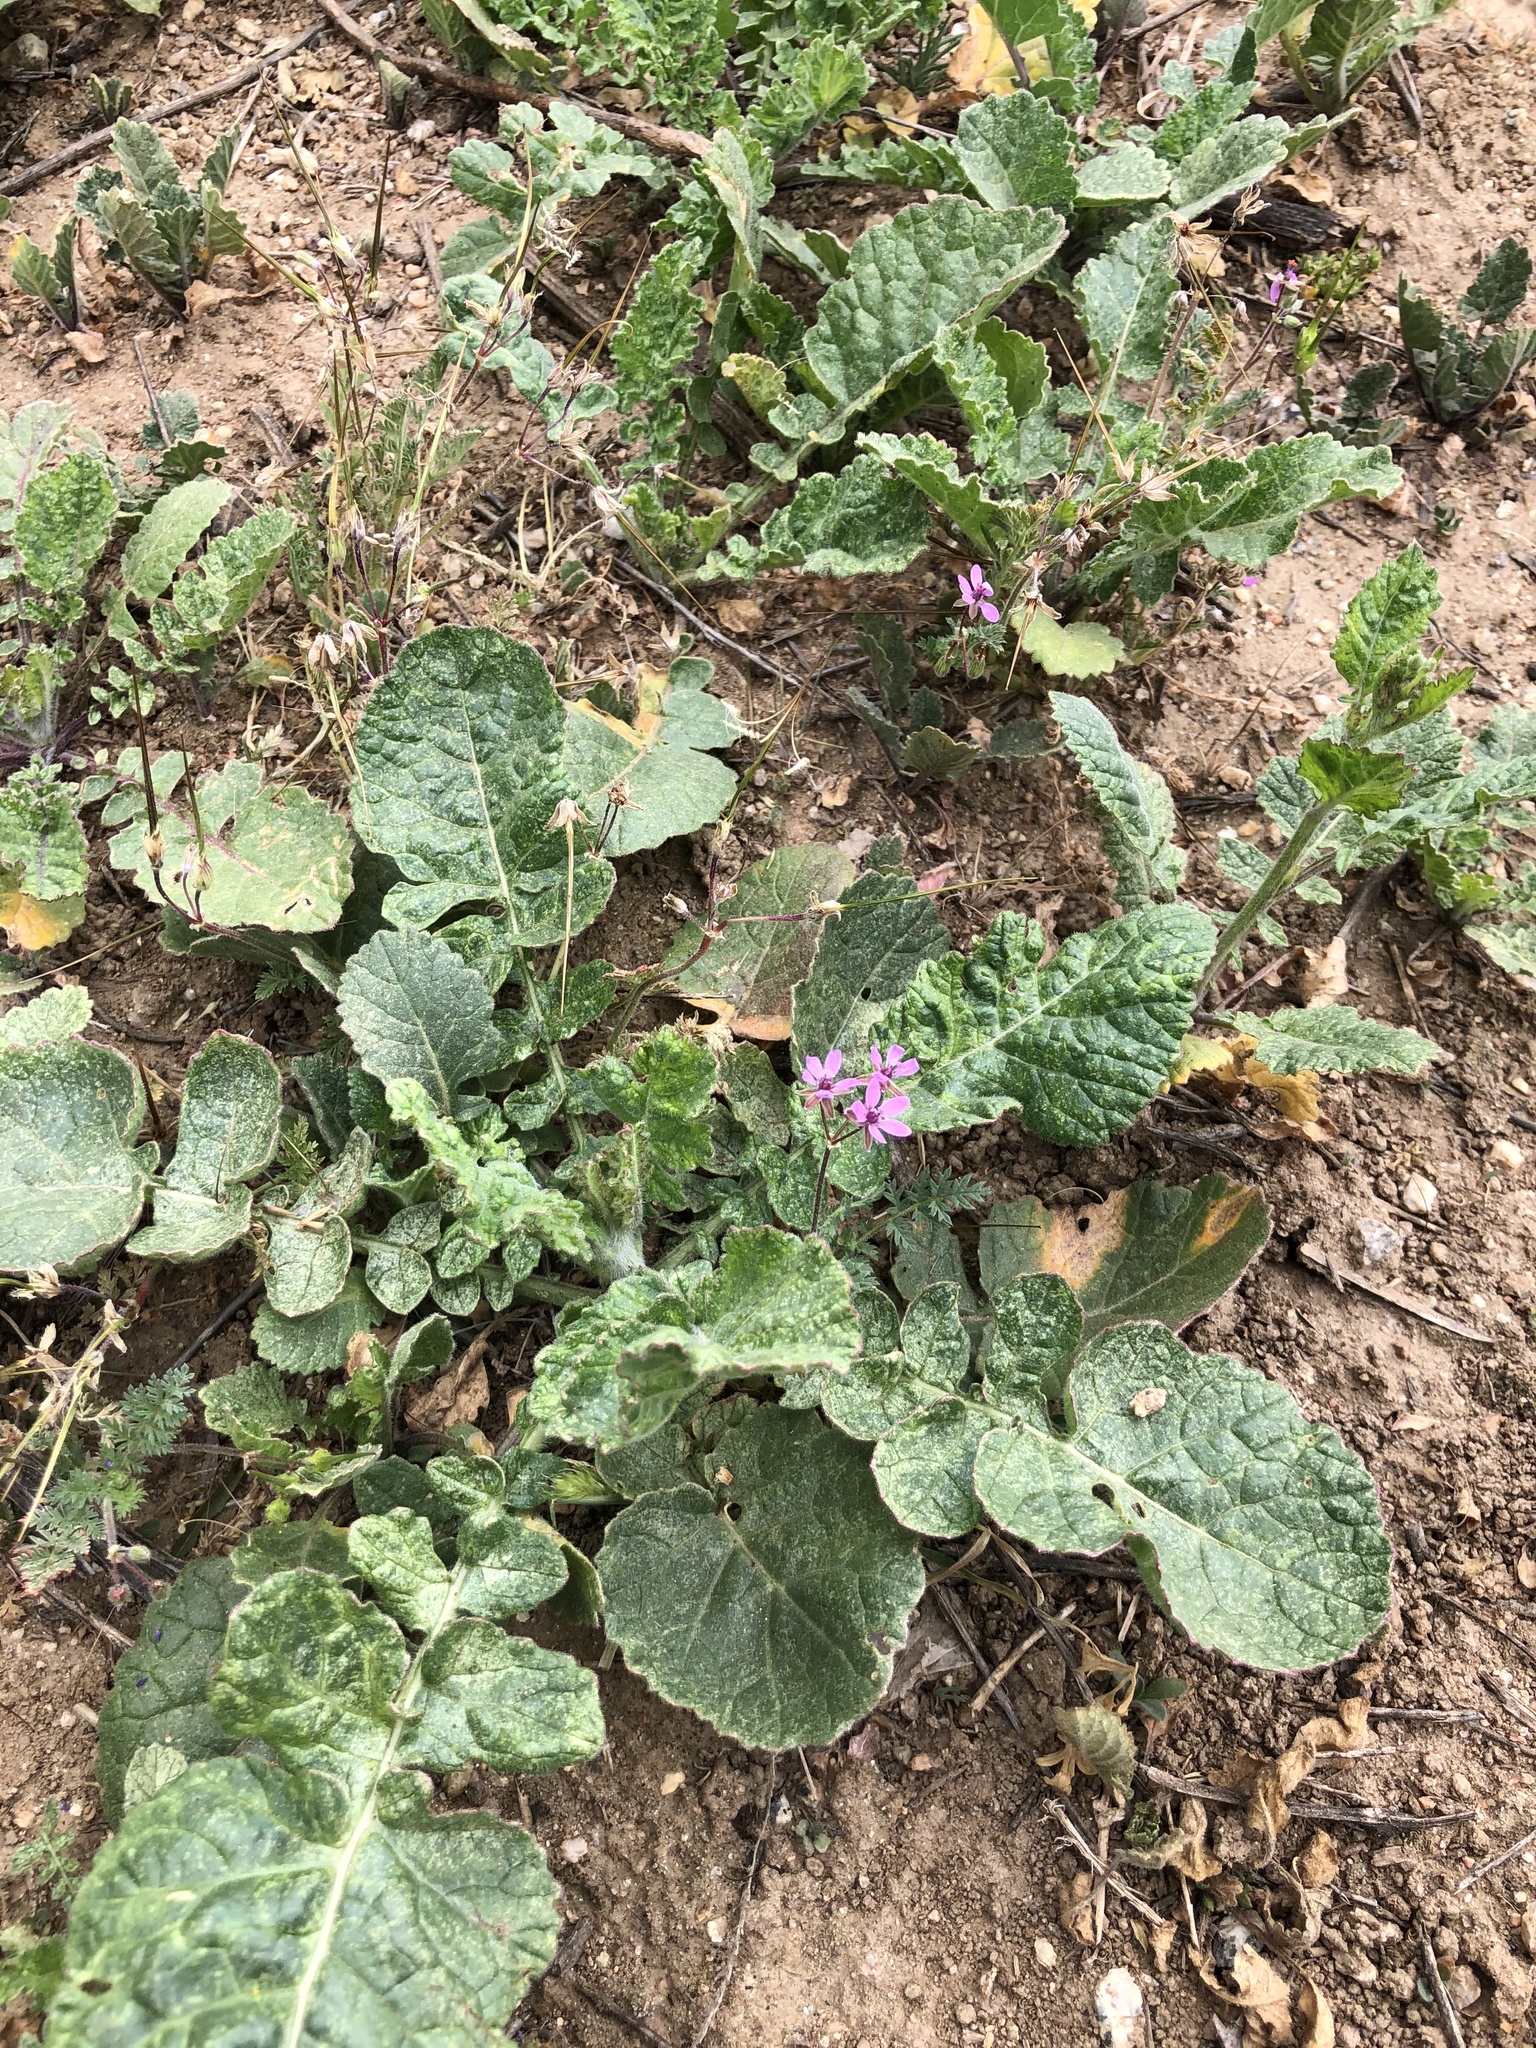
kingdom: Plantae
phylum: Tracheophyta
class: Magnoliopsida
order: Geraniales
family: Geraniaceae
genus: Erodium
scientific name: Erodium cicutarium
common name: Common stork's-bill
